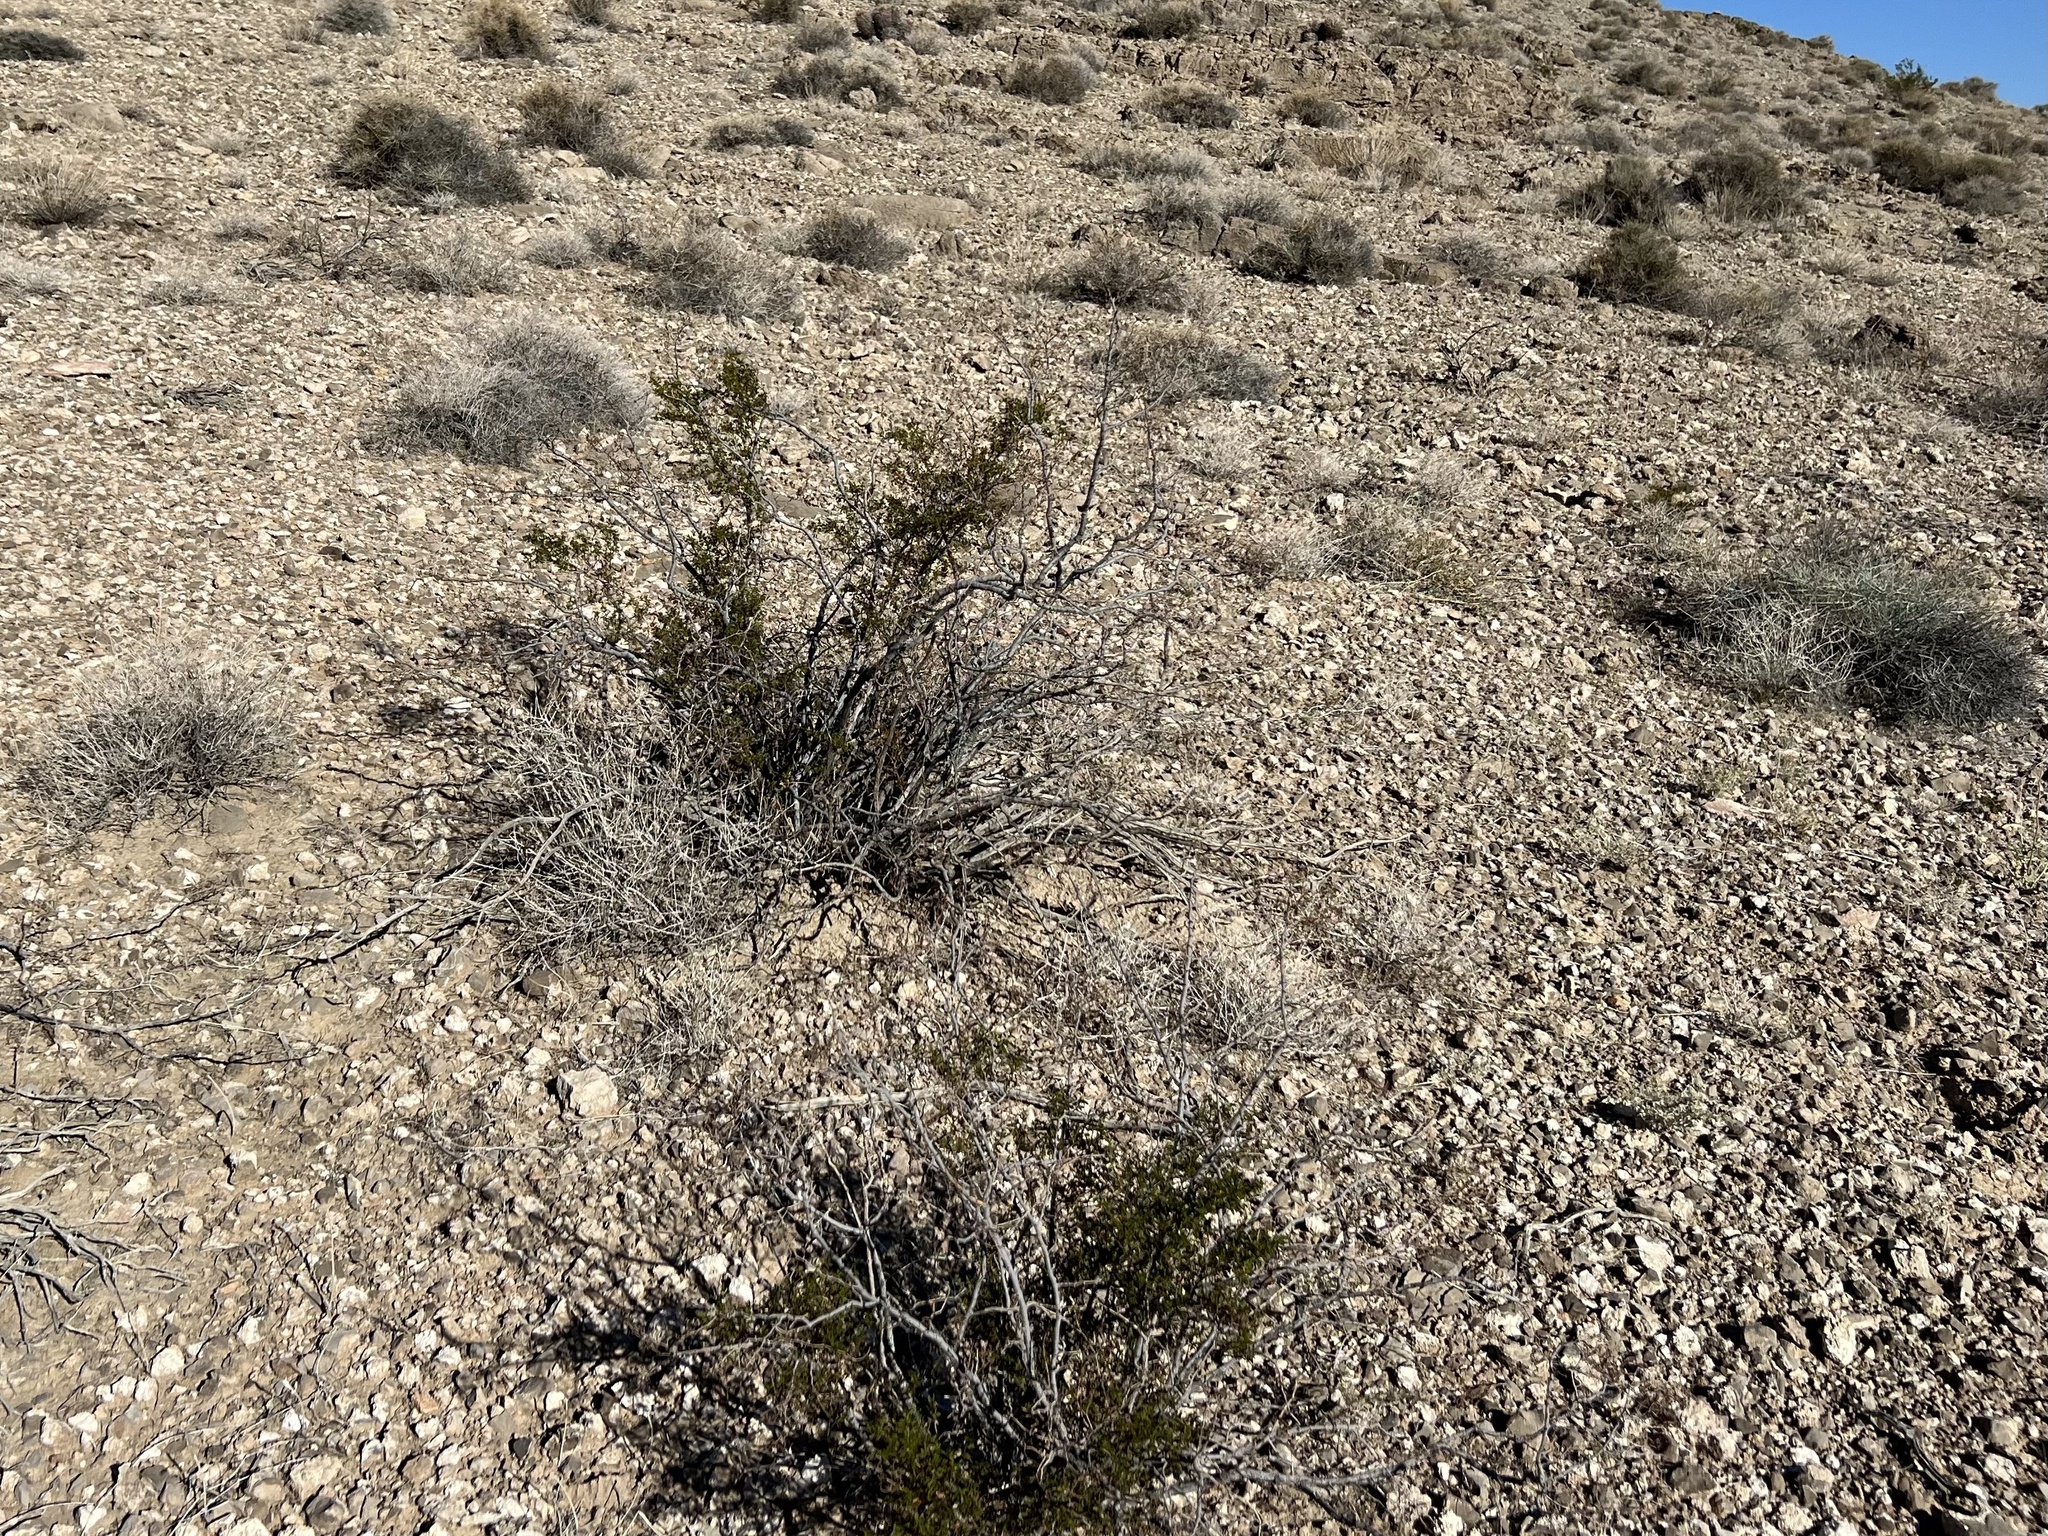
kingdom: Plantae
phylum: Tracheophyta
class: Magnoliopsida
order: Zygophyllales
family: Zygophyllaceae
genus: Larrea
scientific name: Larrea tridentata
